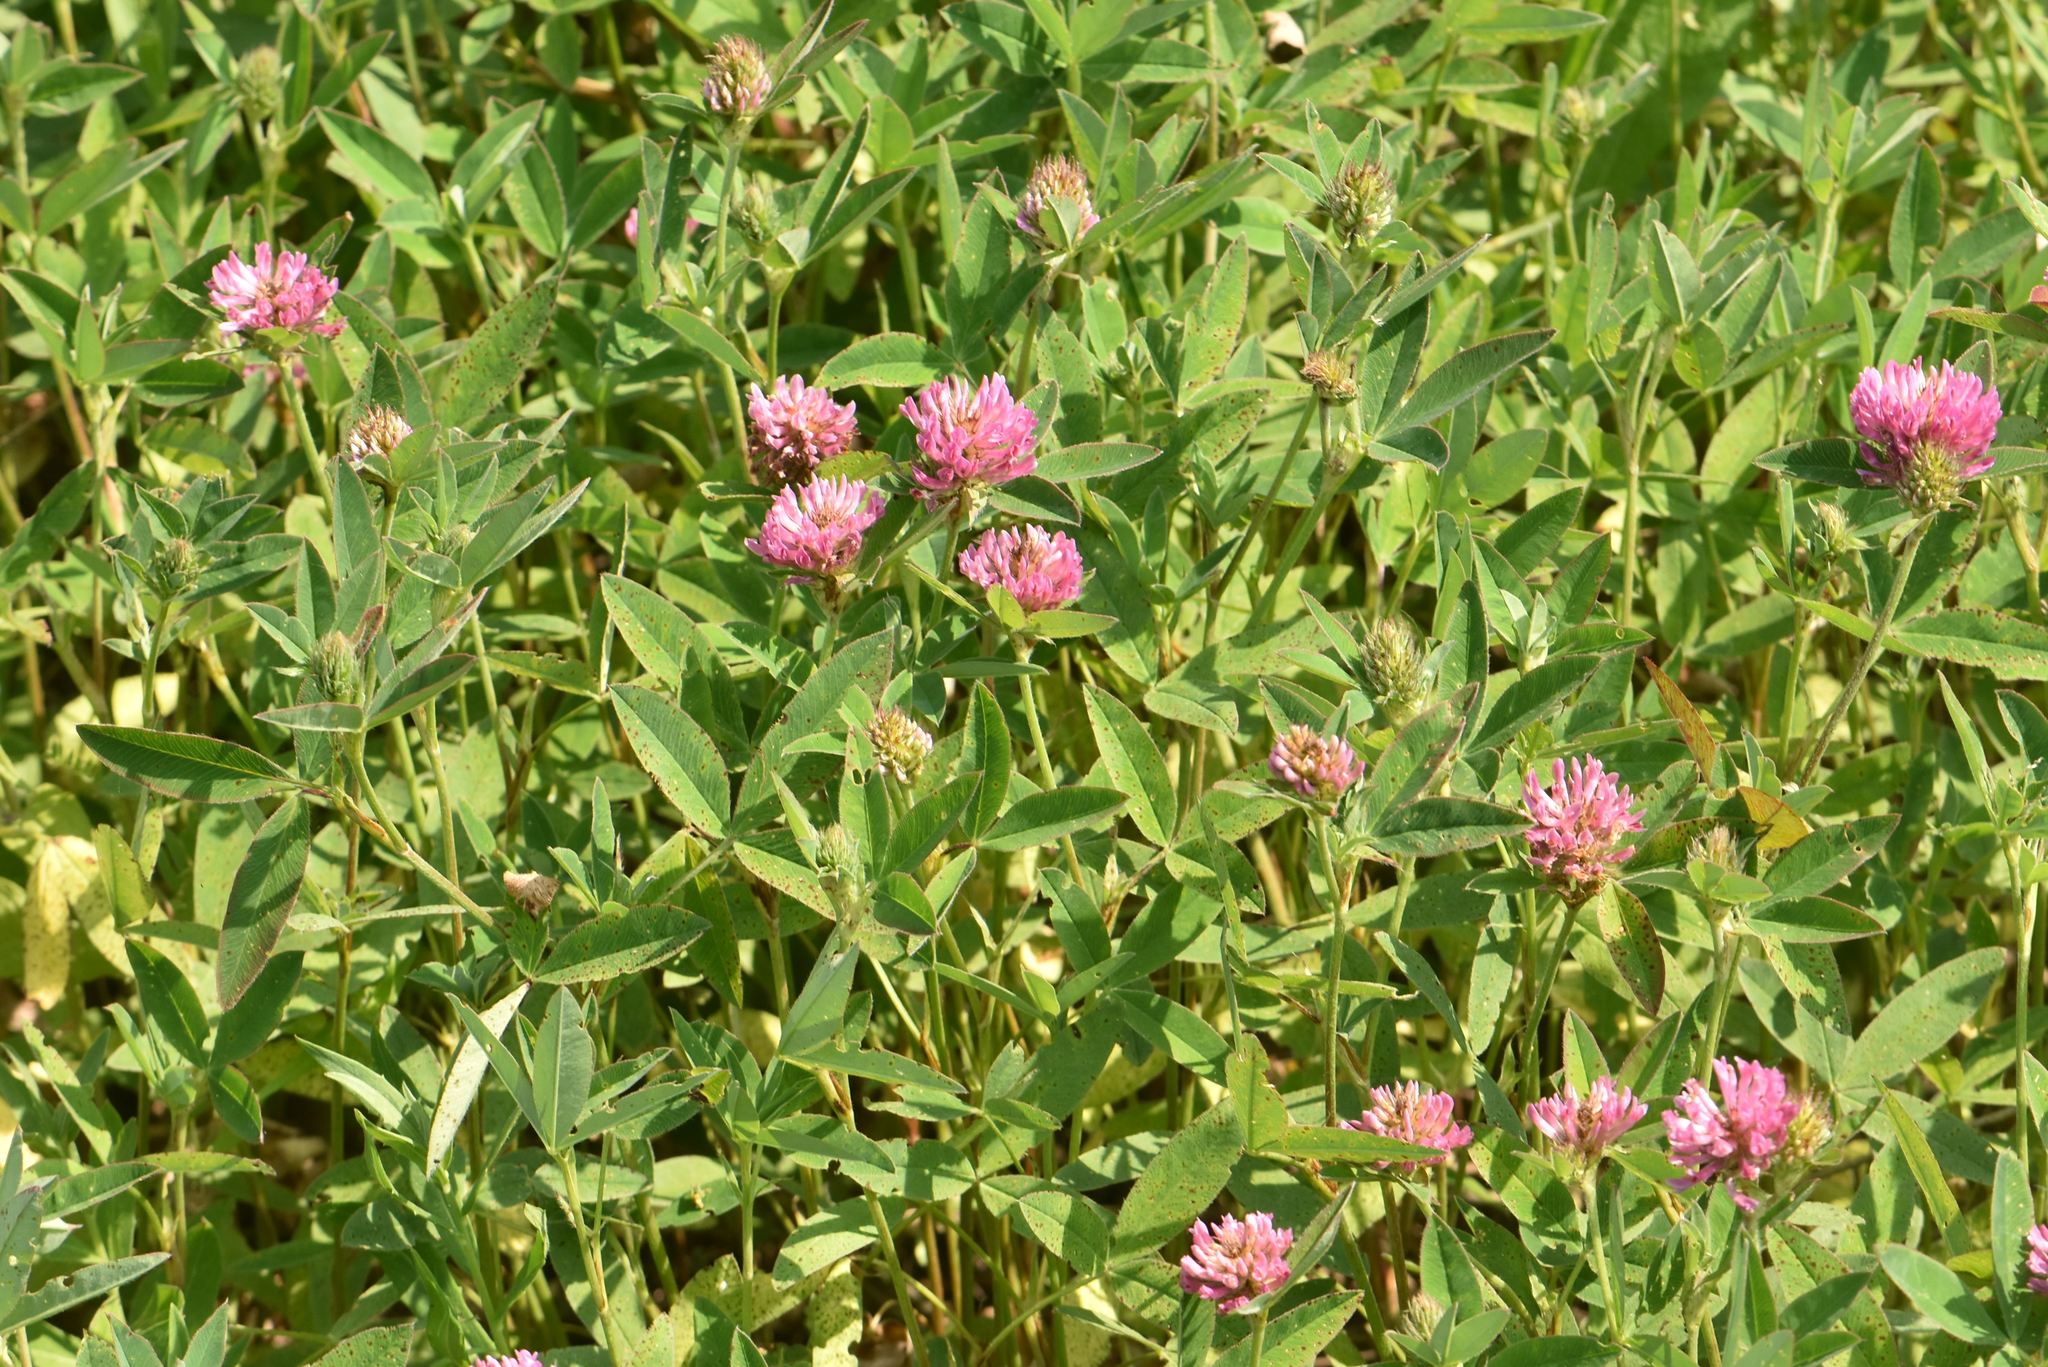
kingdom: Plantae
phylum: Tracheophyta
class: Magnoliopsida
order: Fabales
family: Fabaceae
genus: Trifolium
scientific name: Trifolium medium
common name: Zigzag clover
